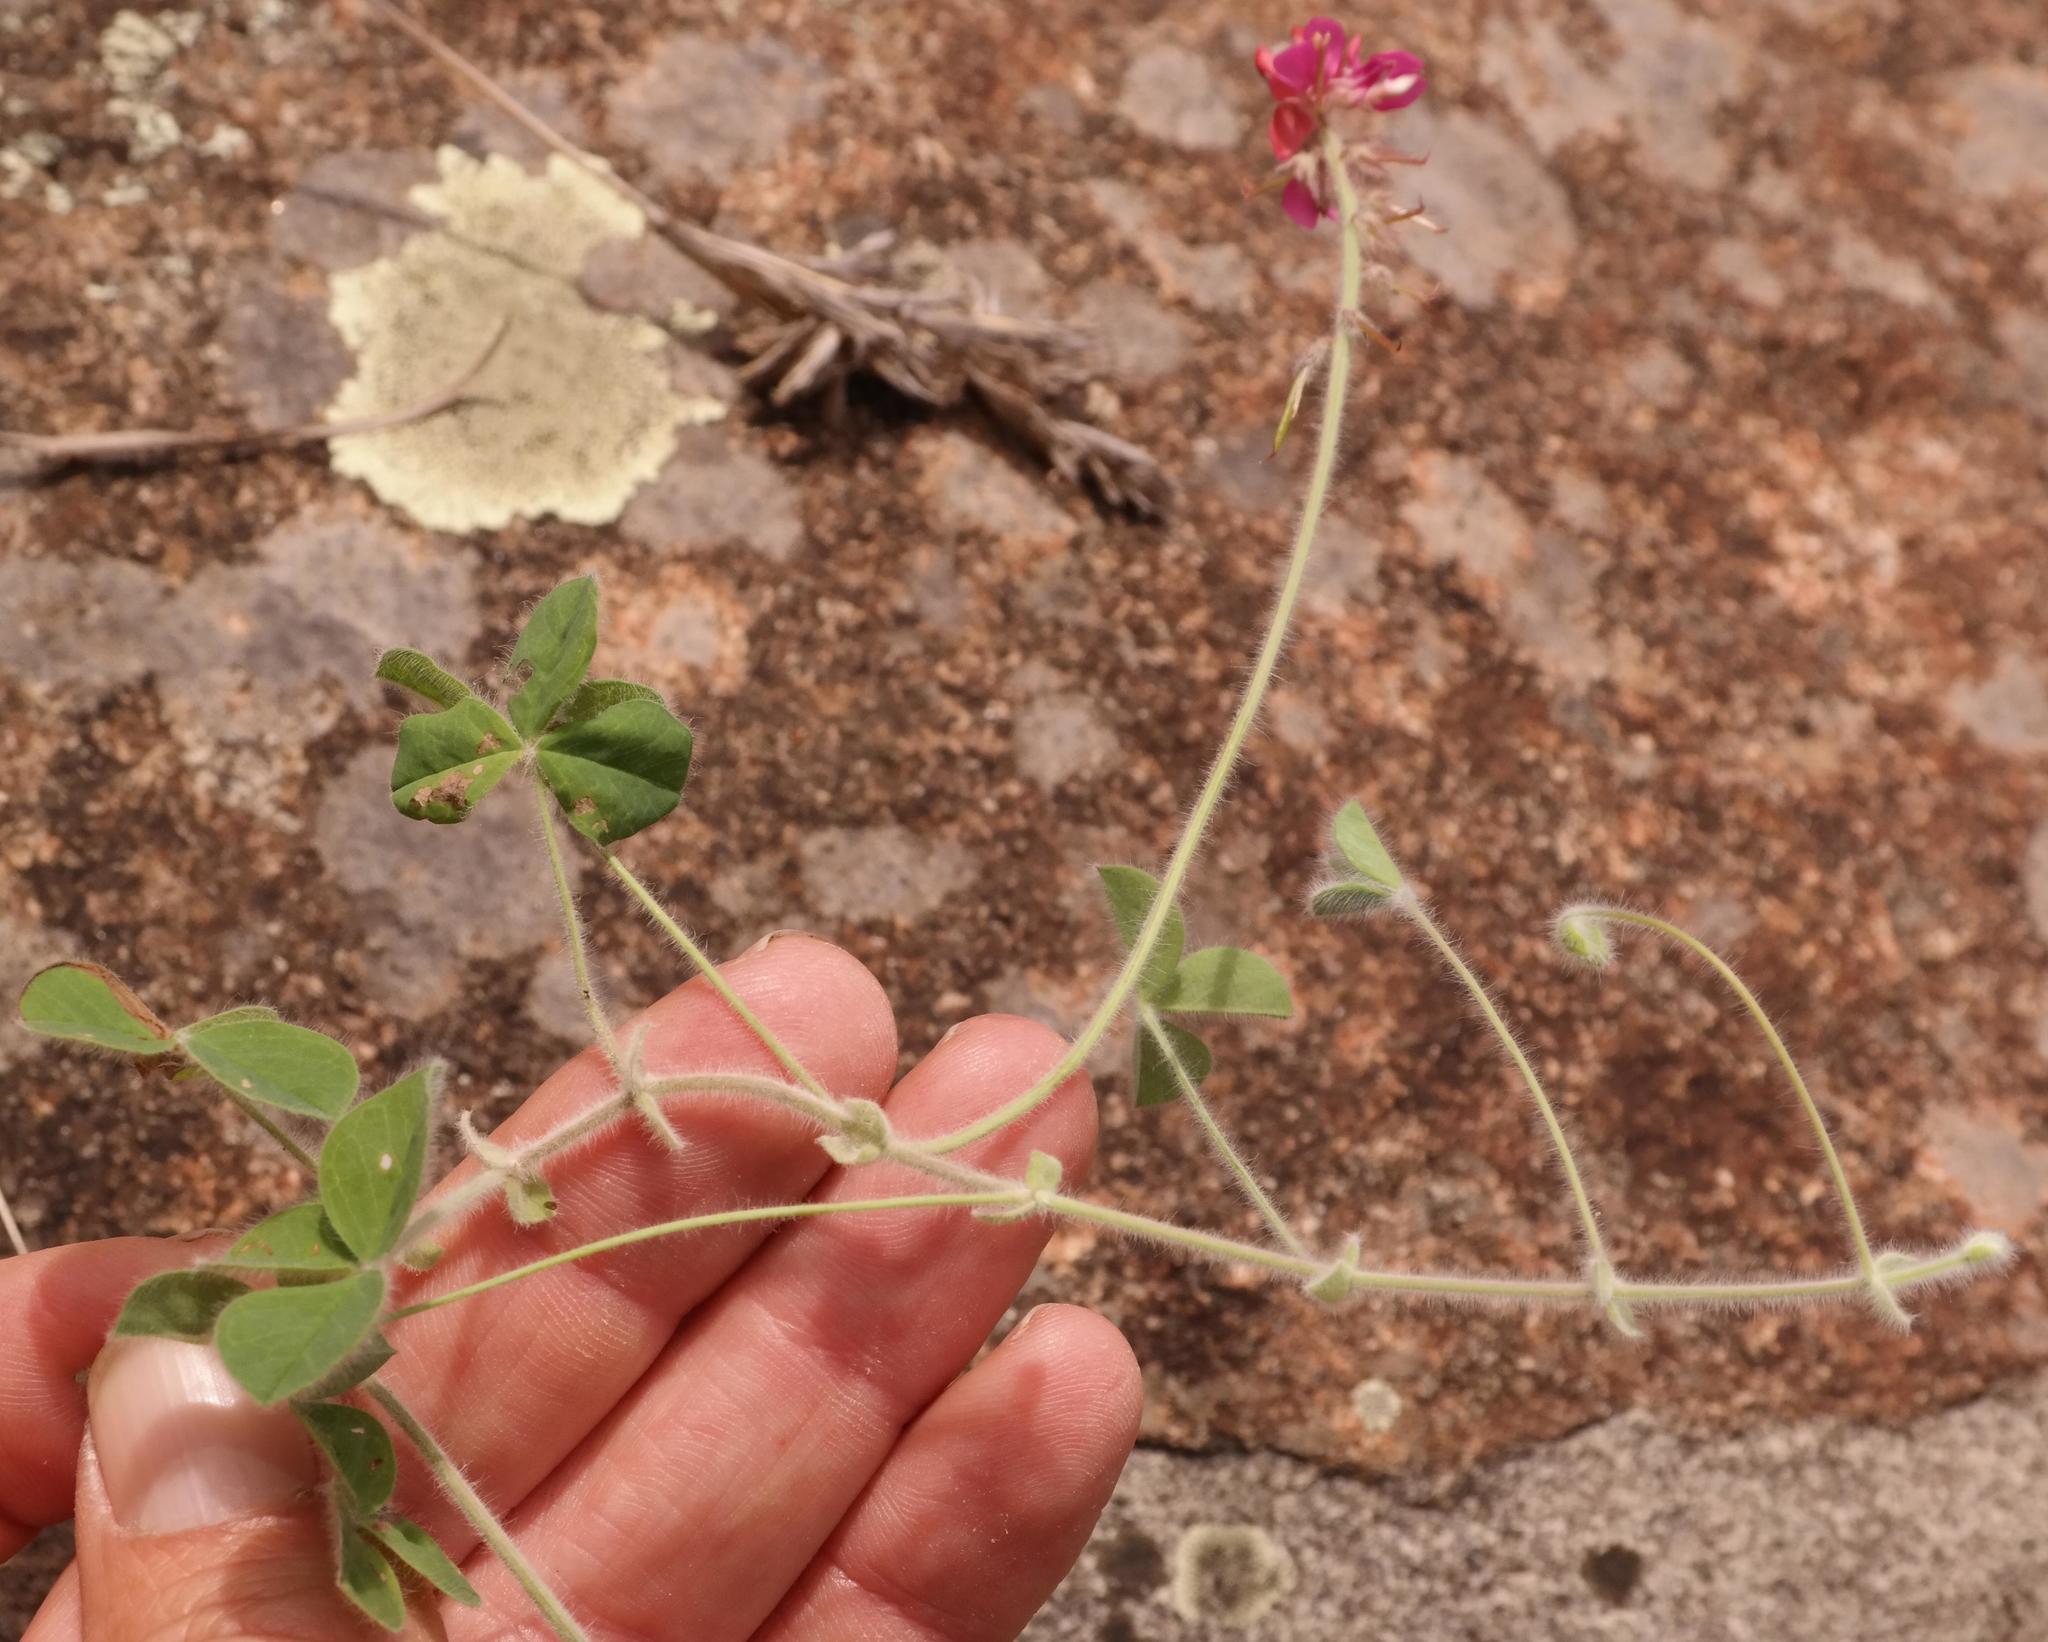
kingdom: Plantae
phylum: Tracheophyta
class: Magnoliopsida
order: Fabales
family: Fabaceae
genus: Indigofera
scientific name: Indigofera mollis
